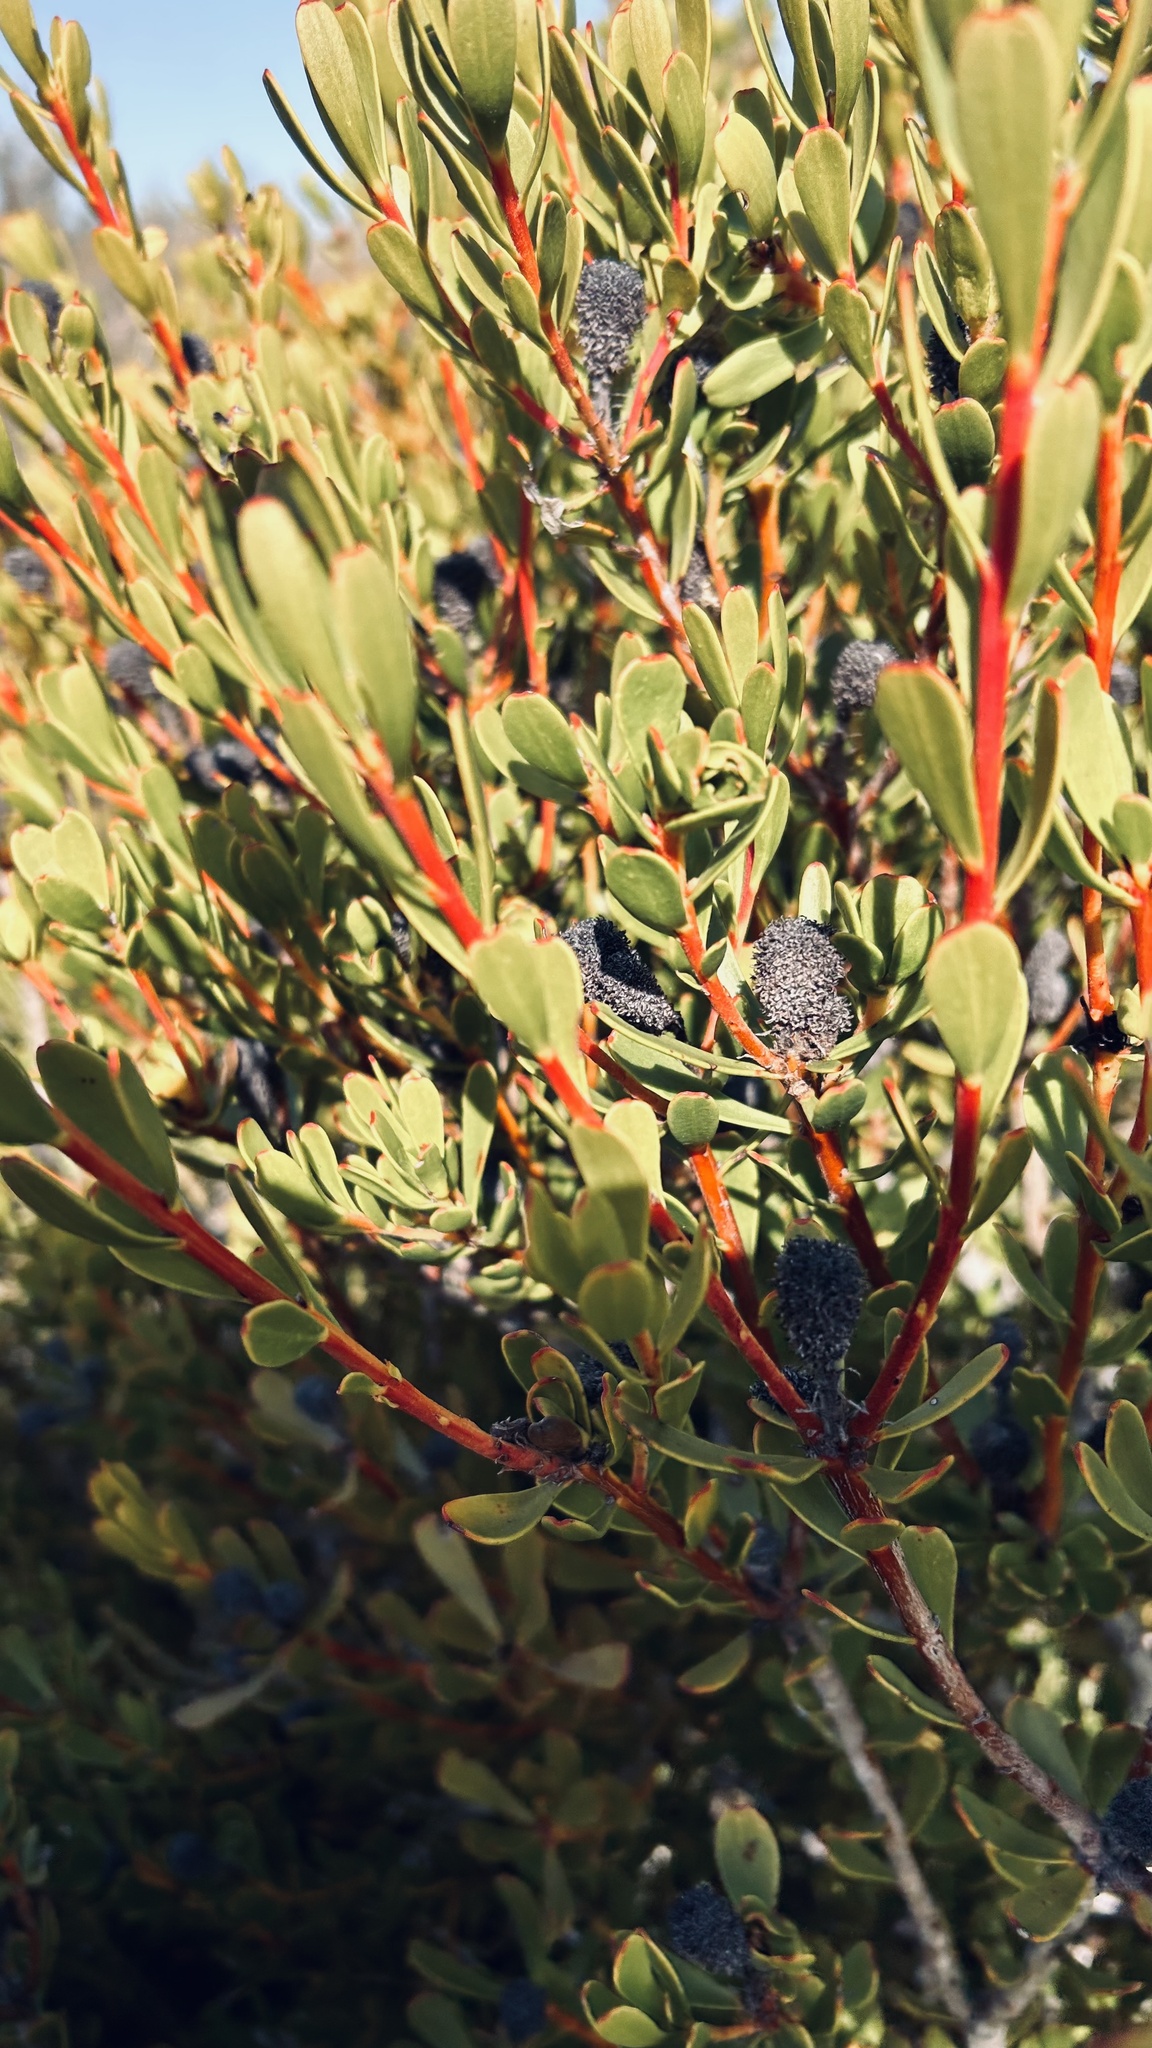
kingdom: Plantae
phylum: Tracheophyta
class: Magnoliopsida
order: Proteales
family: Proteaceae
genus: Leucadendron
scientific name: Leucadendron muirii
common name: Silver-ball conebush
